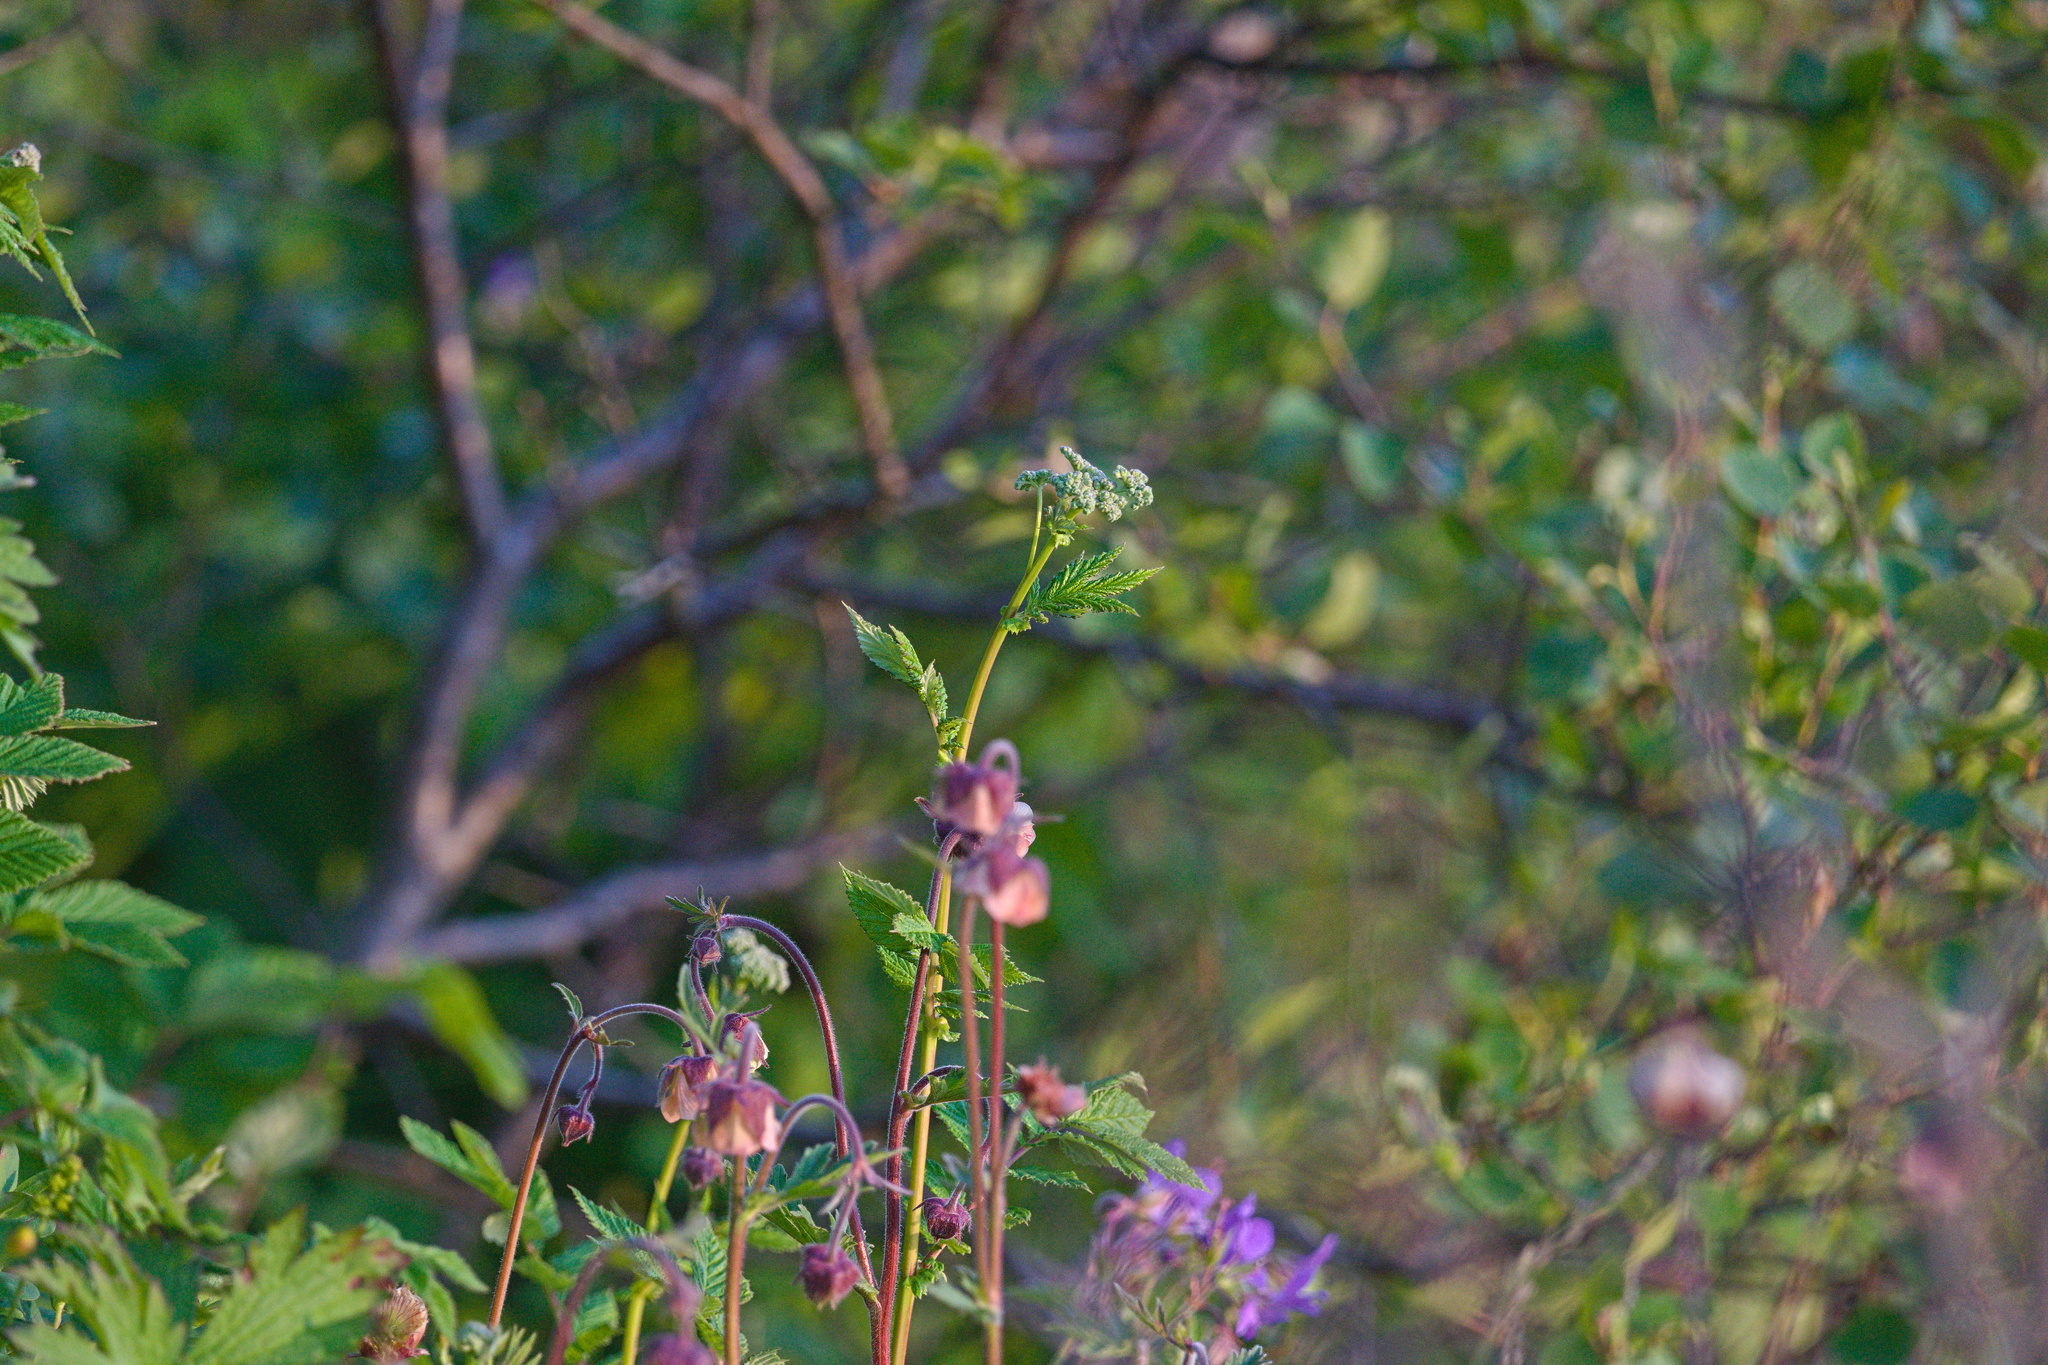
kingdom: Plantae
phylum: Tracheophyta
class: Magnoliopsida
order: Rosales
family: Rosaceae
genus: Filipendula
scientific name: Filipendula ulmaria
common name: Meadowsweet
